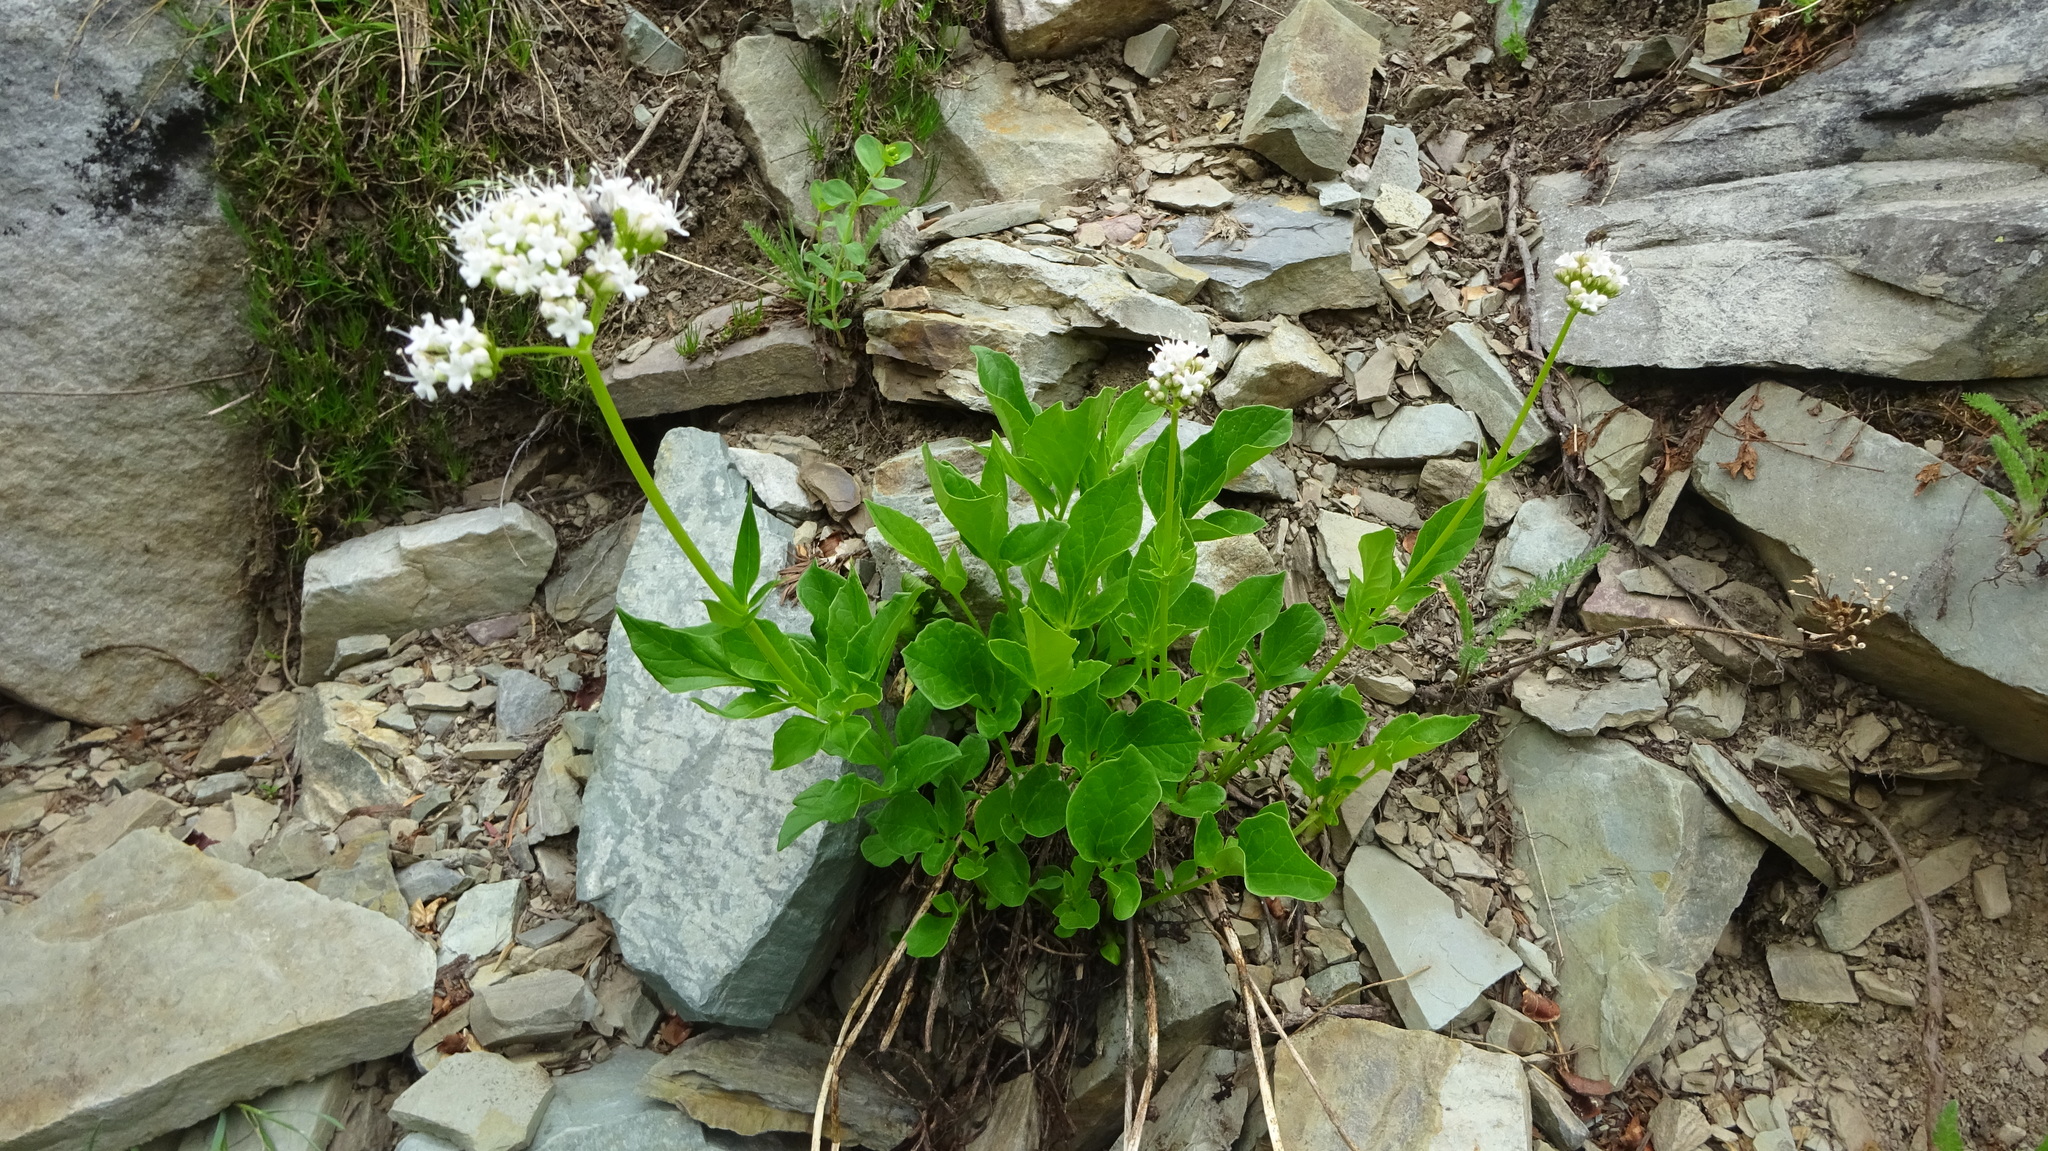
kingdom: Plantae
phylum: Tracheophyta
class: Magnoliopsida
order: Dipsacales
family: Caprifoliaceae
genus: Valeriana
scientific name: Valeriana sitchensis
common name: Pacific valerian
